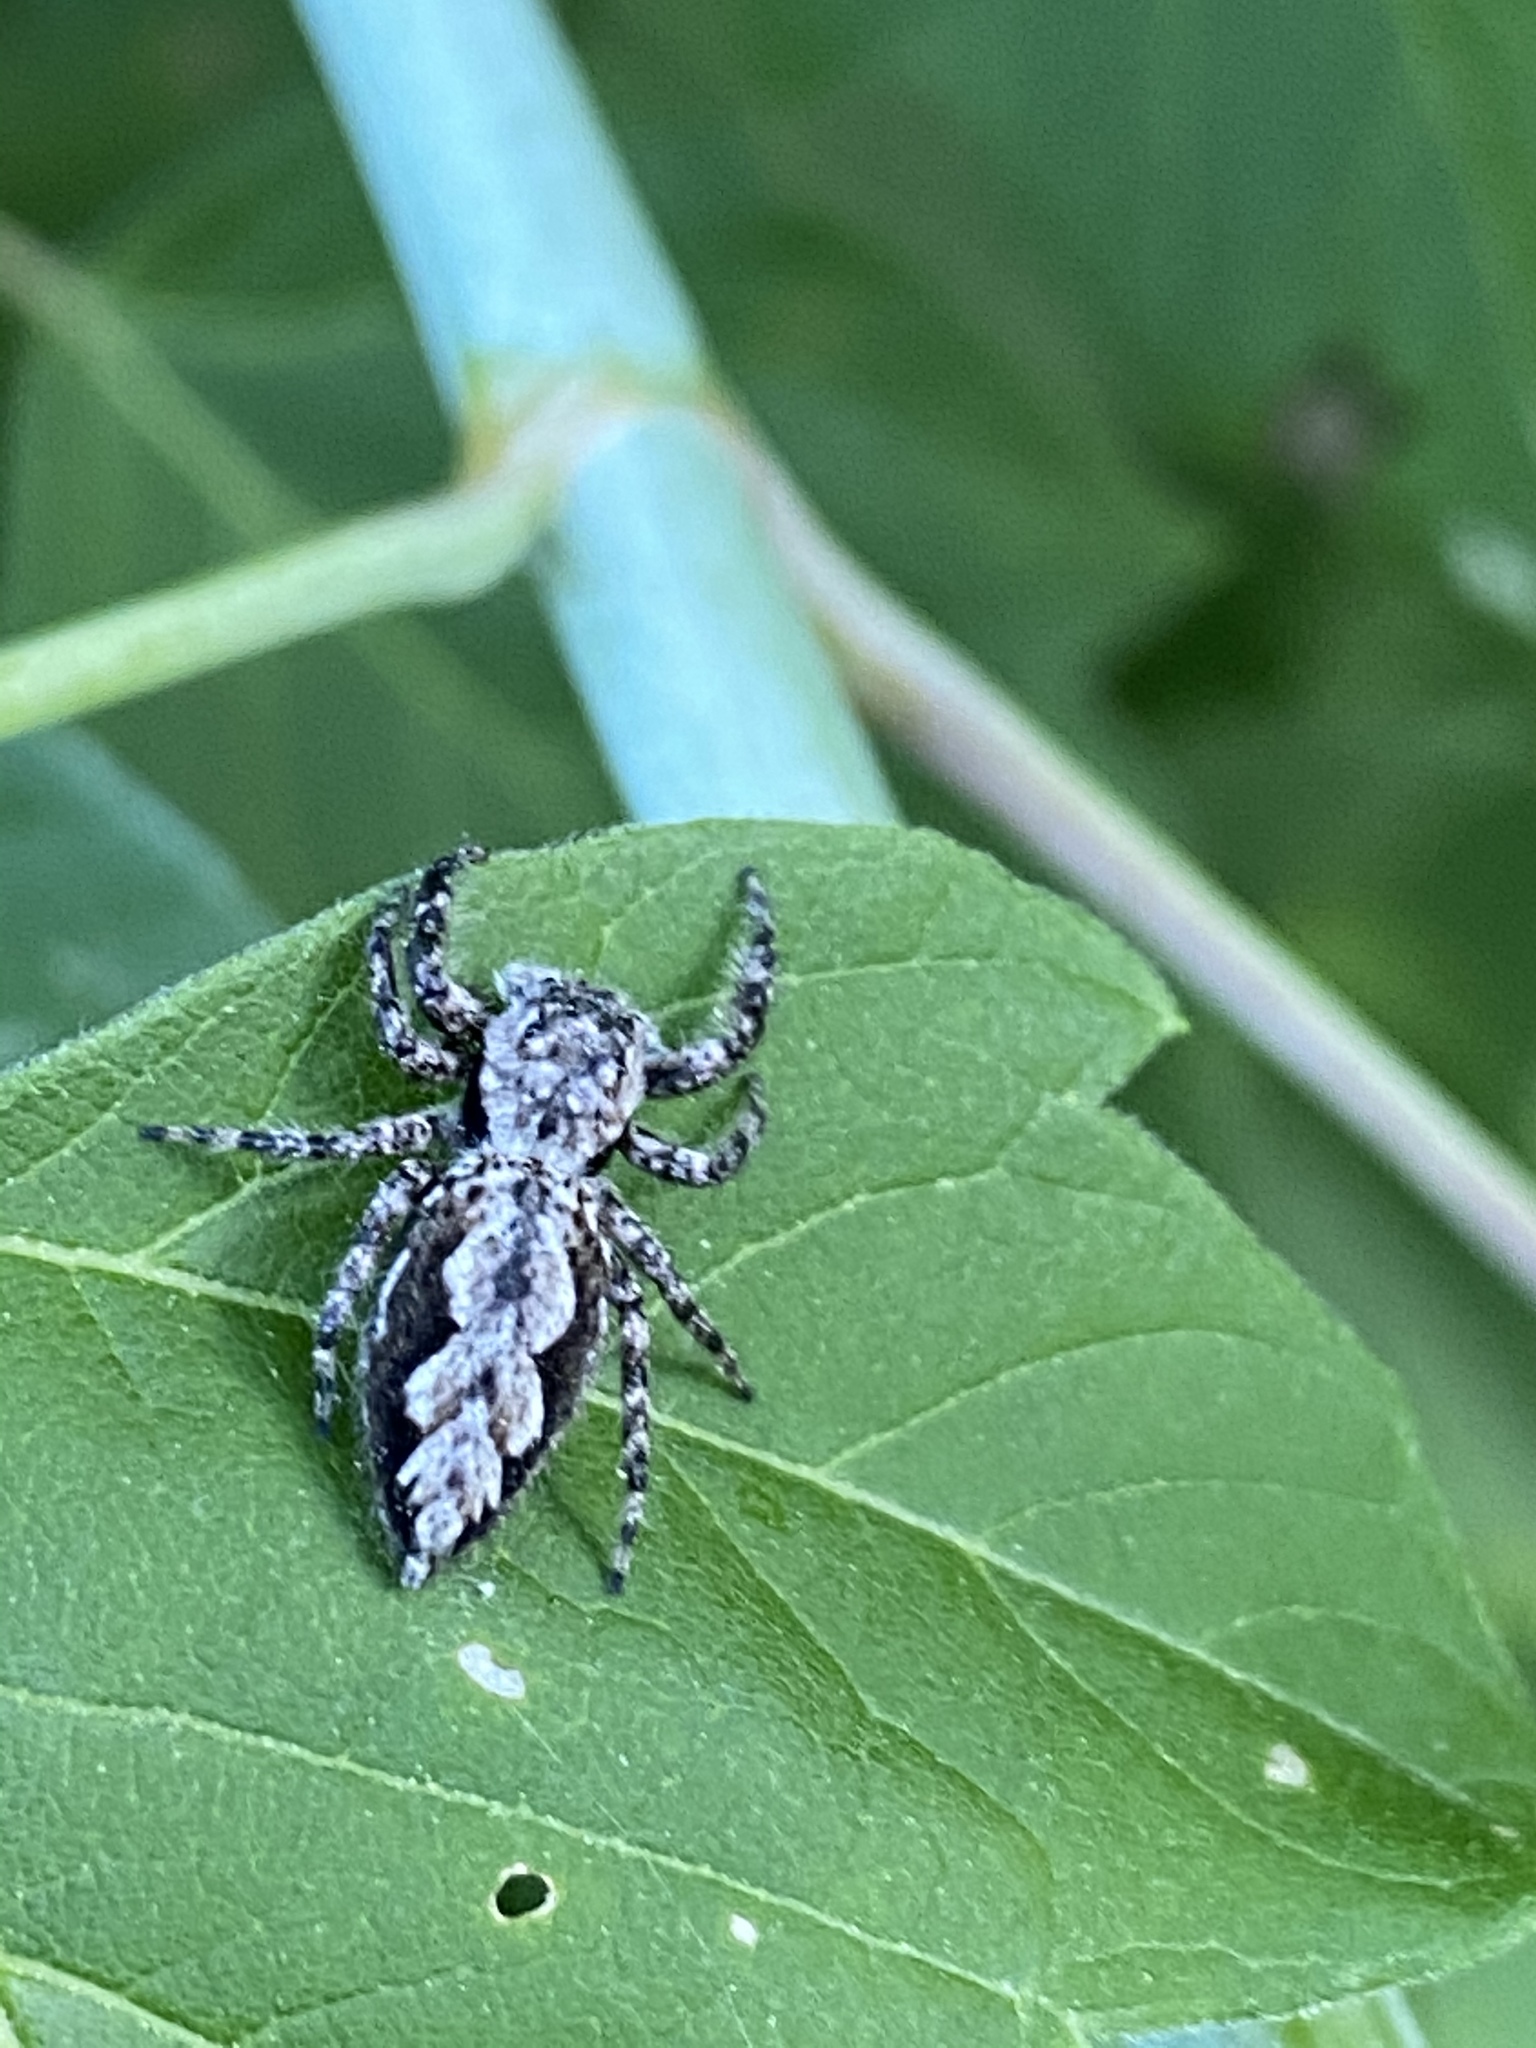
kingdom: Animalia
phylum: Arthropoda
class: Arachnida
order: Araneae
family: Salticidae
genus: Platycryptus
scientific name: Platycryptus undatus
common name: Tan jumping spider
